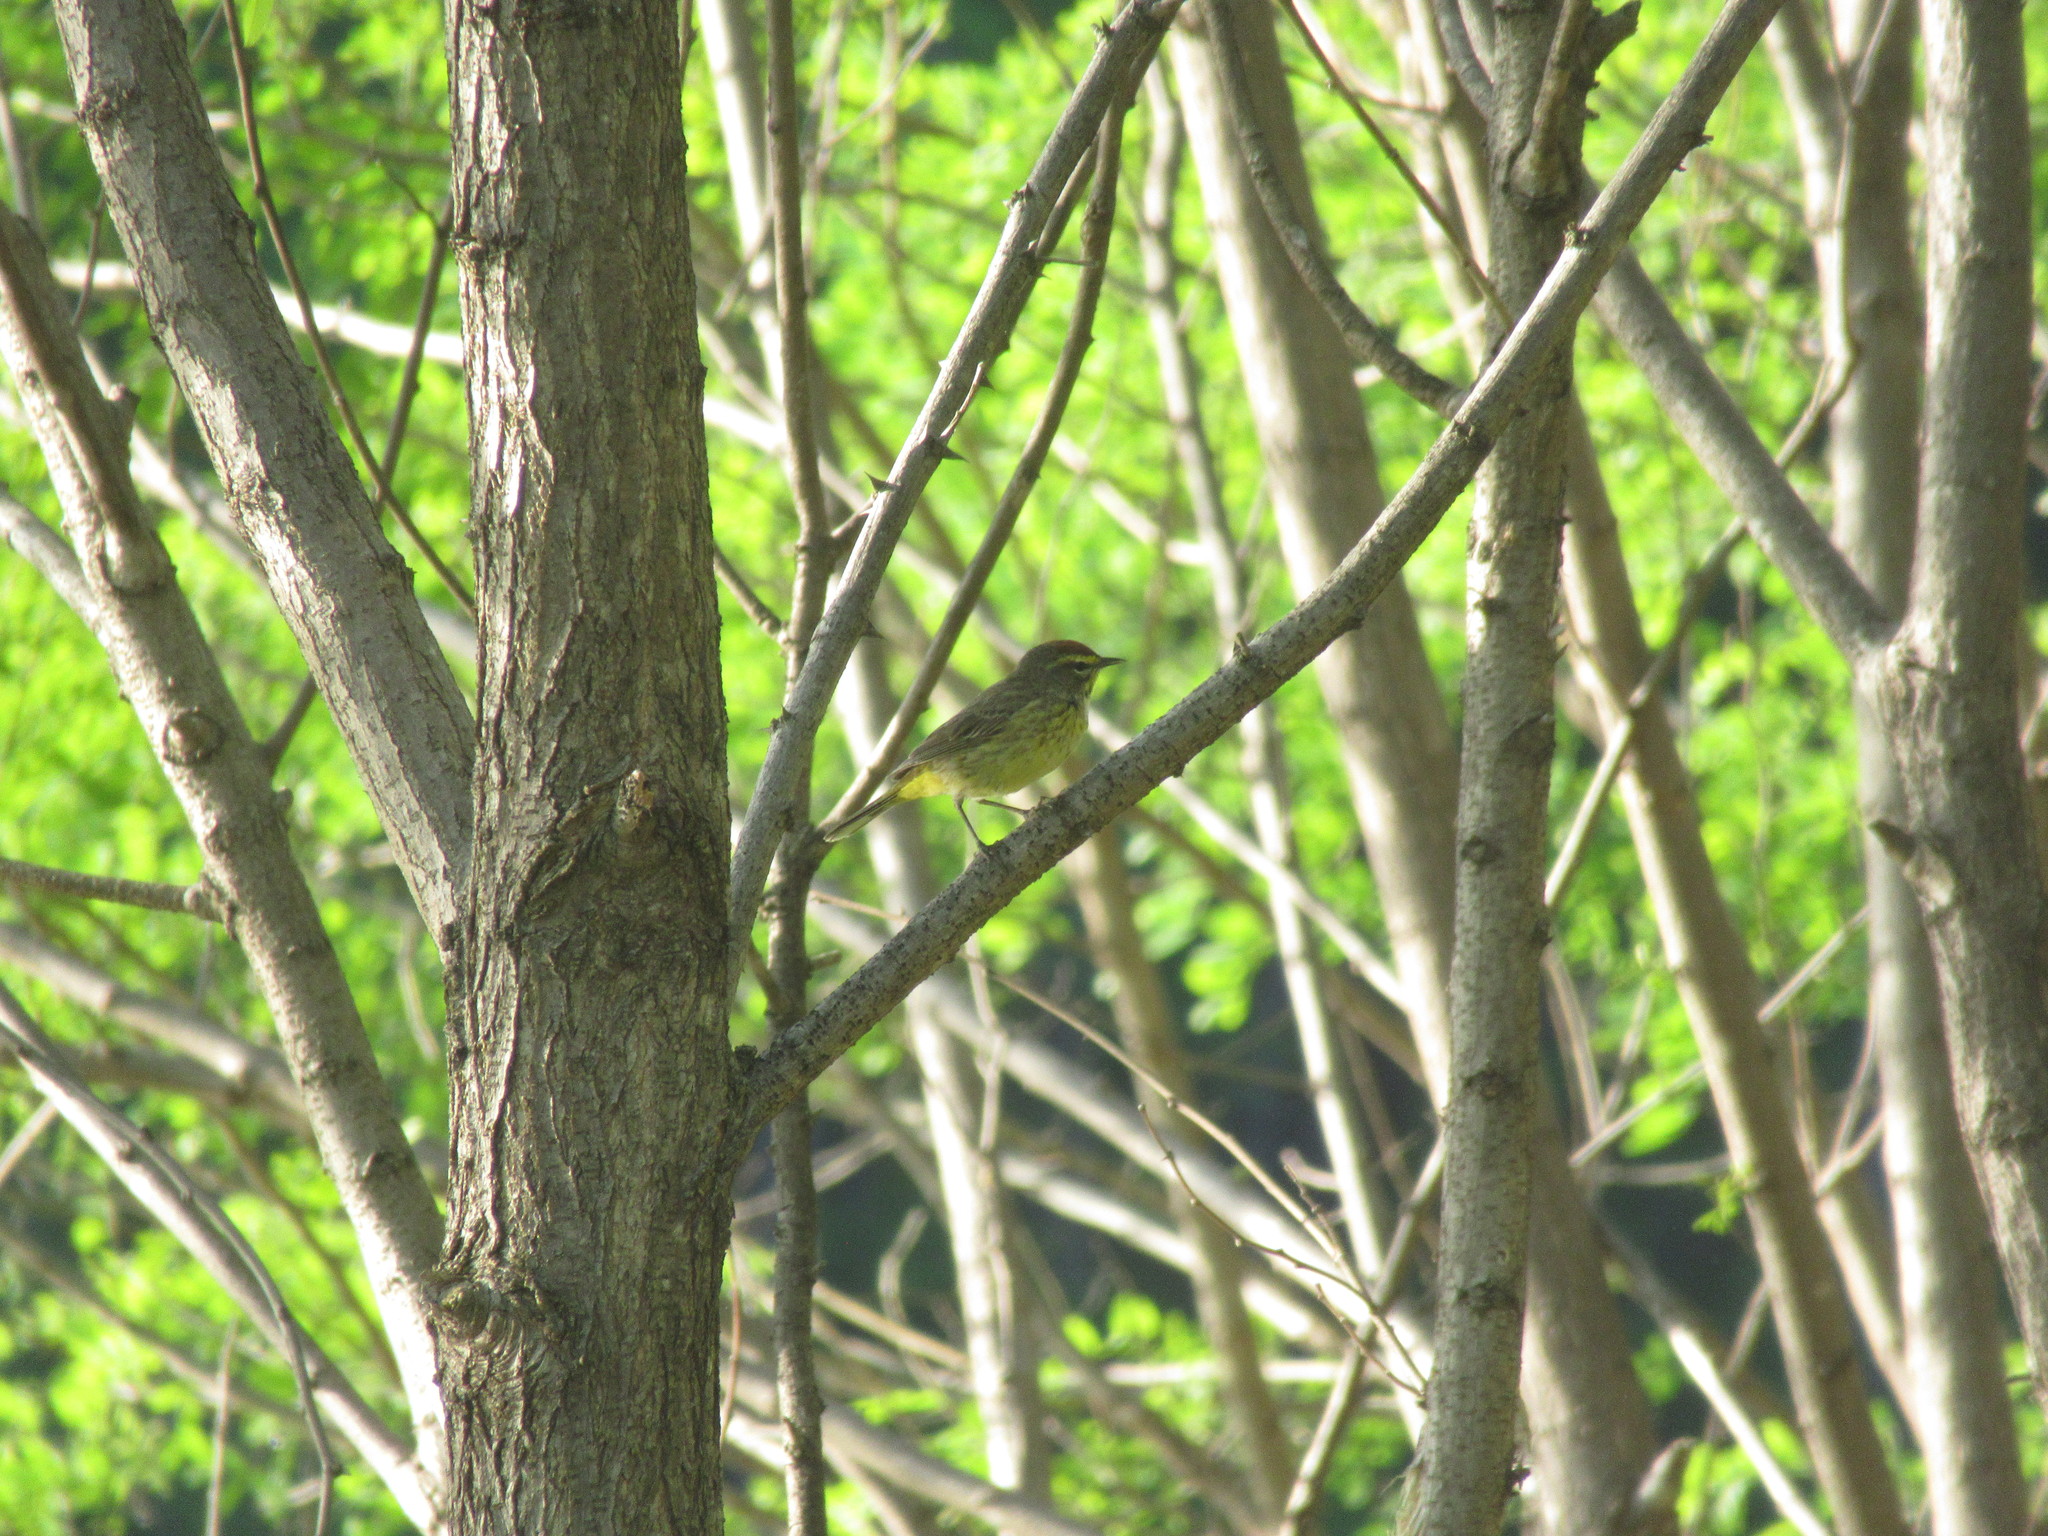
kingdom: Animalia
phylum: Chordata
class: Aves
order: Passeriformes
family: Parulidae
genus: Setophaga
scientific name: Setophaga palmarum
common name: Palm warbler
